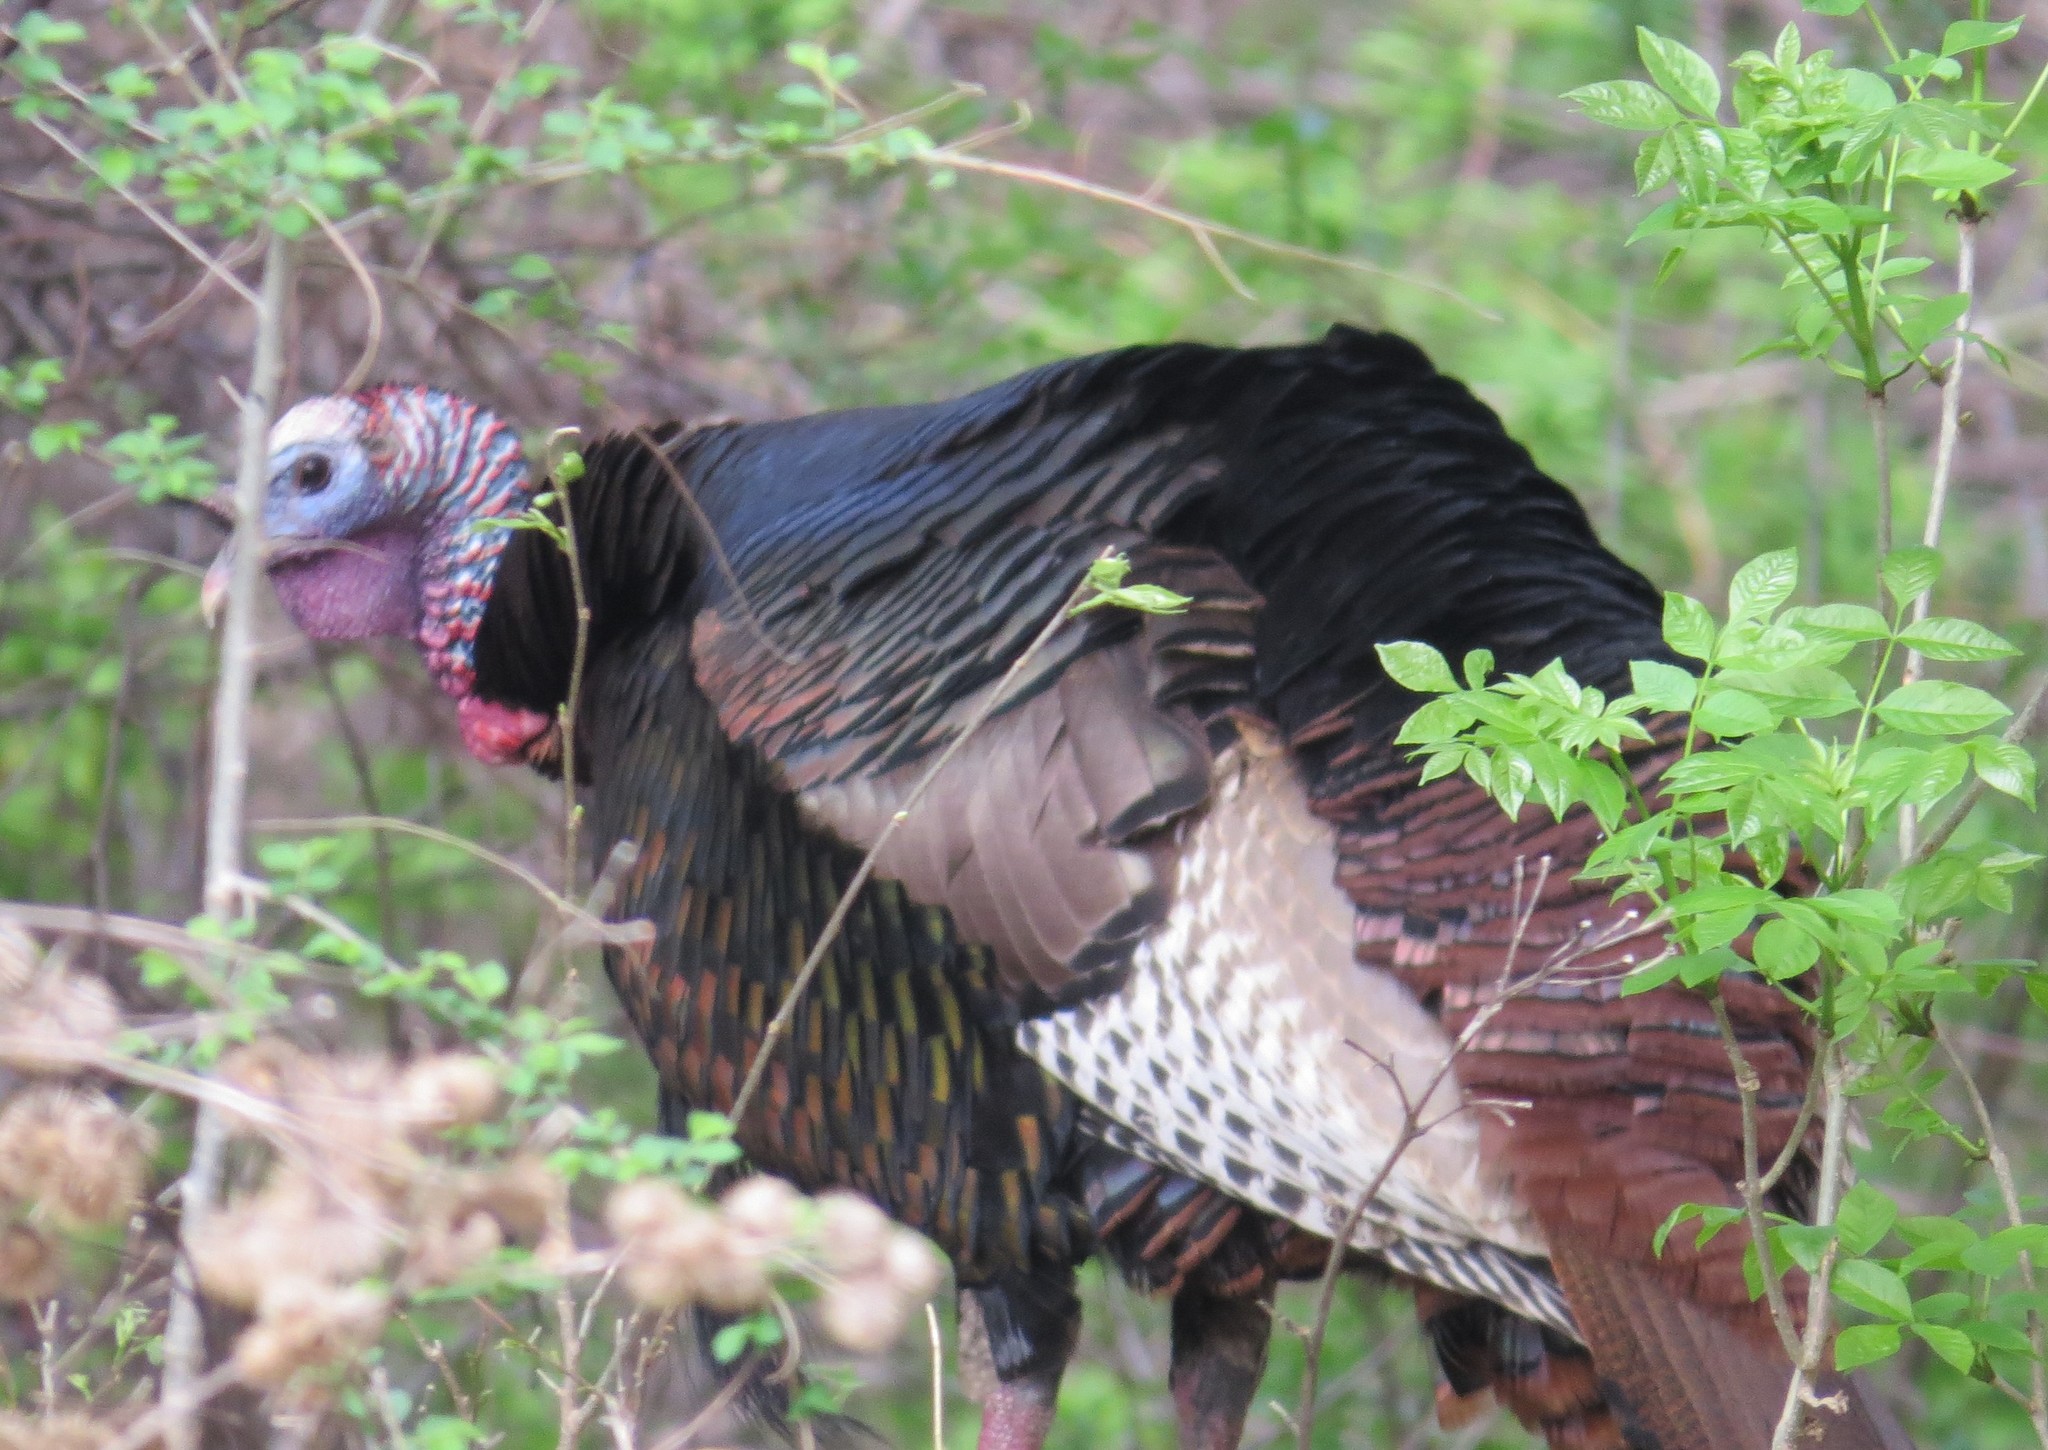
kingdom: Animalia
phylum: Chordata
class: Aves
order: Galliformes
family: Phasianidae
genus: Meleagris
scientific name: Meleagris gallopavo
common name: Wild turkey
